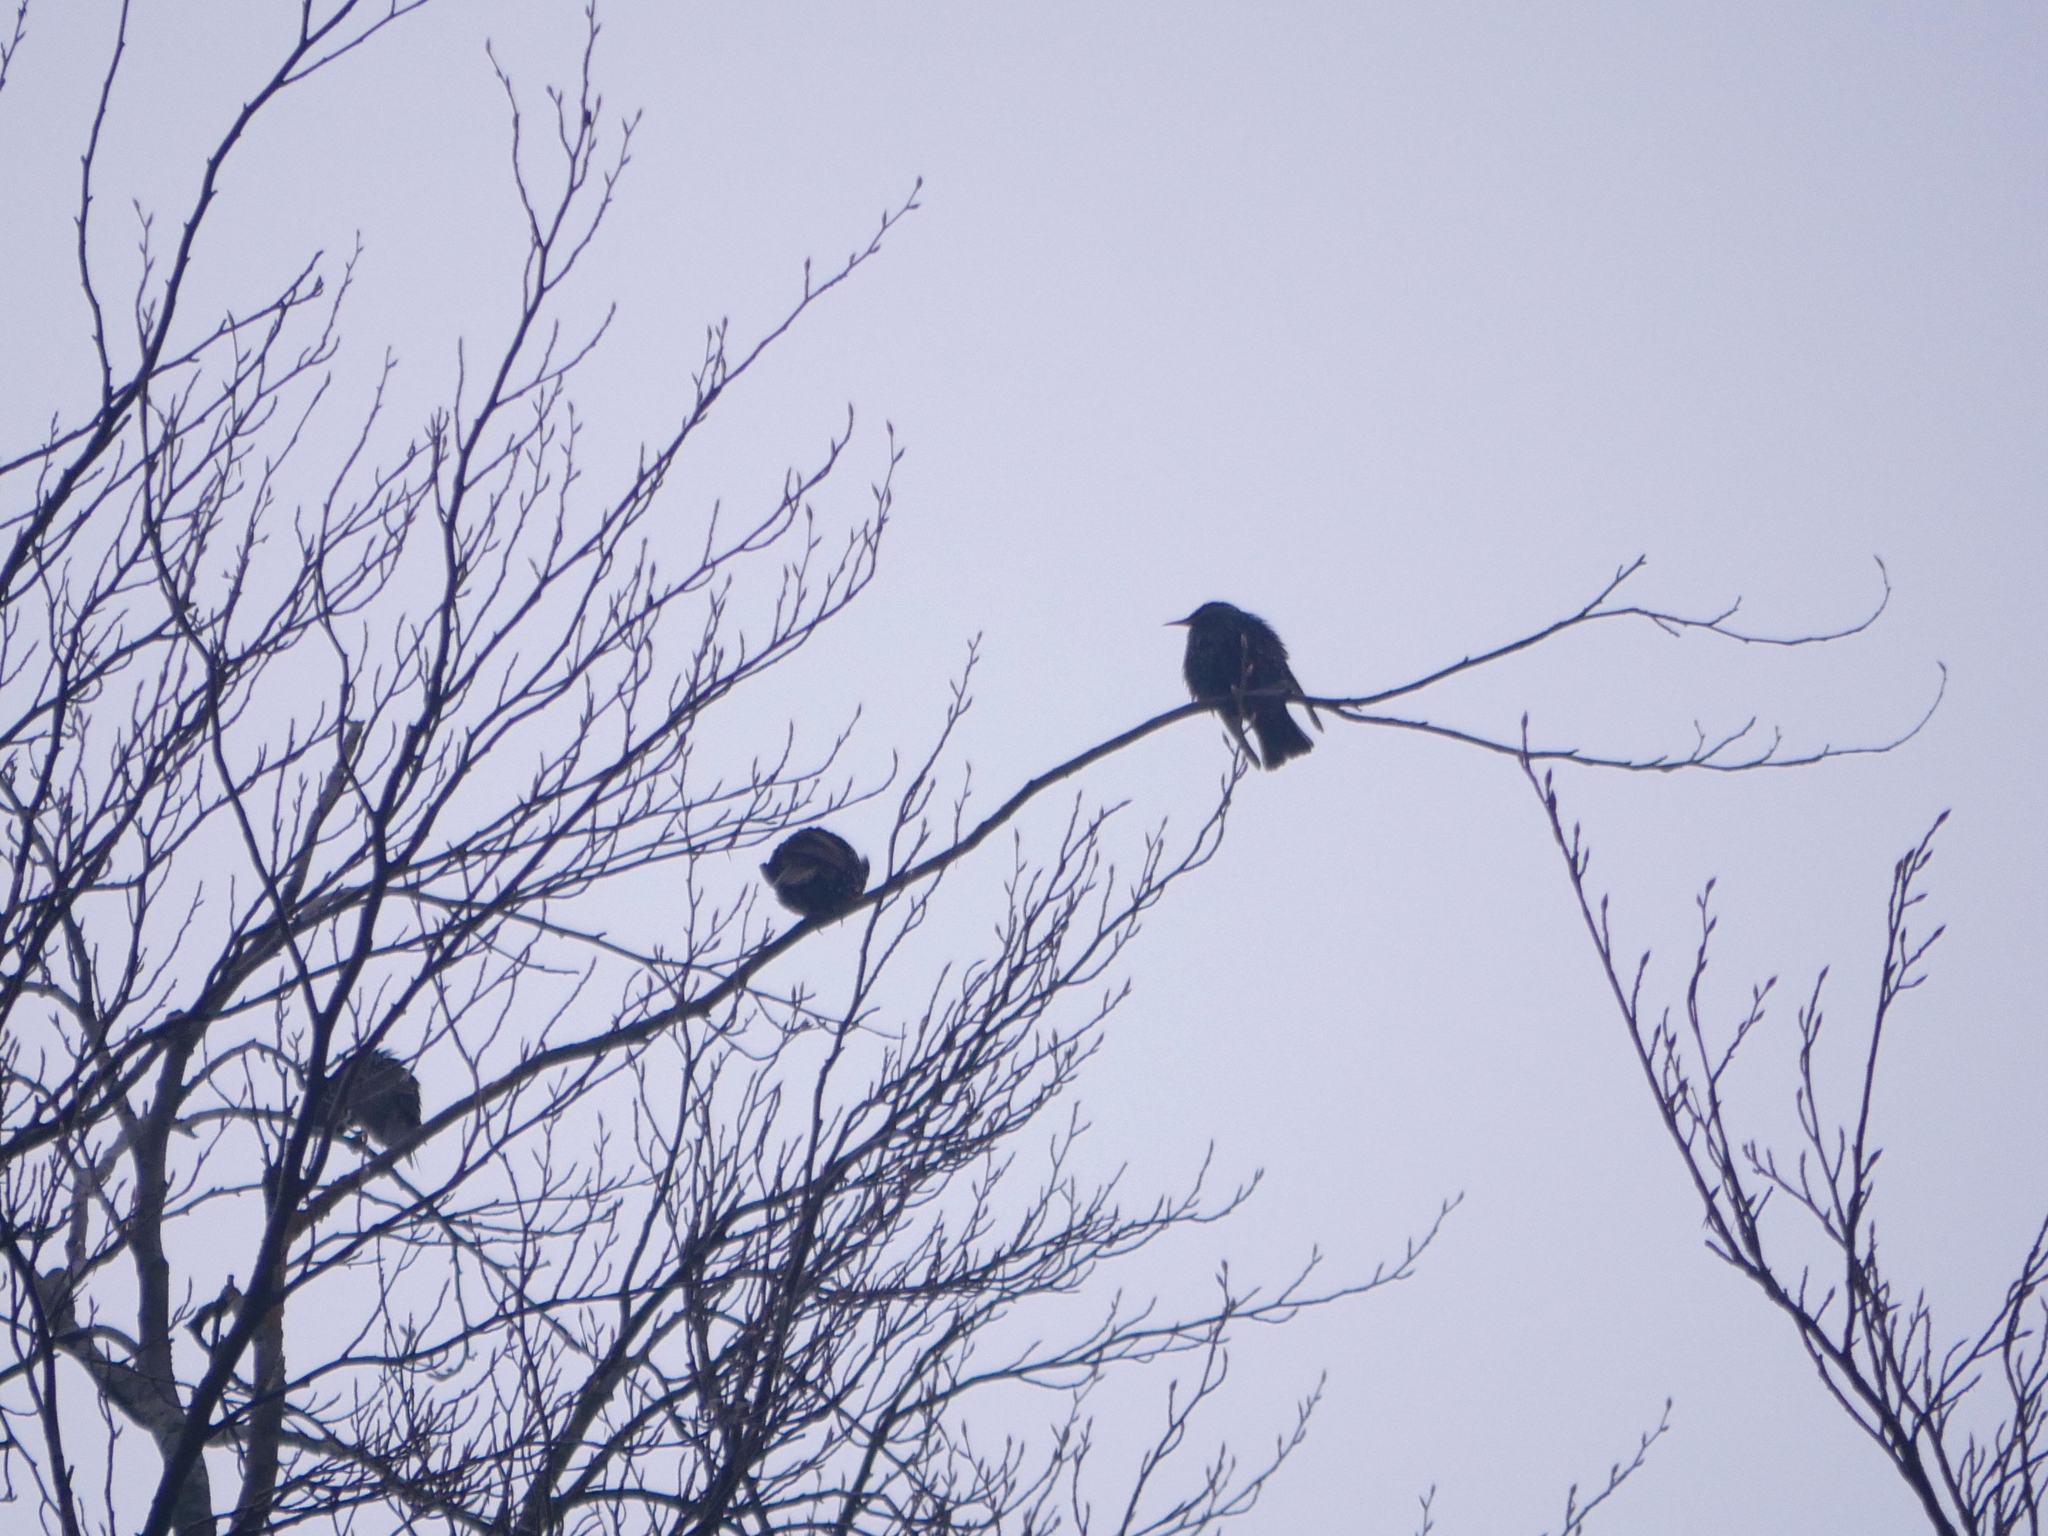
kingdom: Animalia
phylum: Chordata
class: Aves
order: Passeriformes
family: Sturnidae
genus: Sturnus
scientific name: Sturnus vulgaris
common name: Common starling
